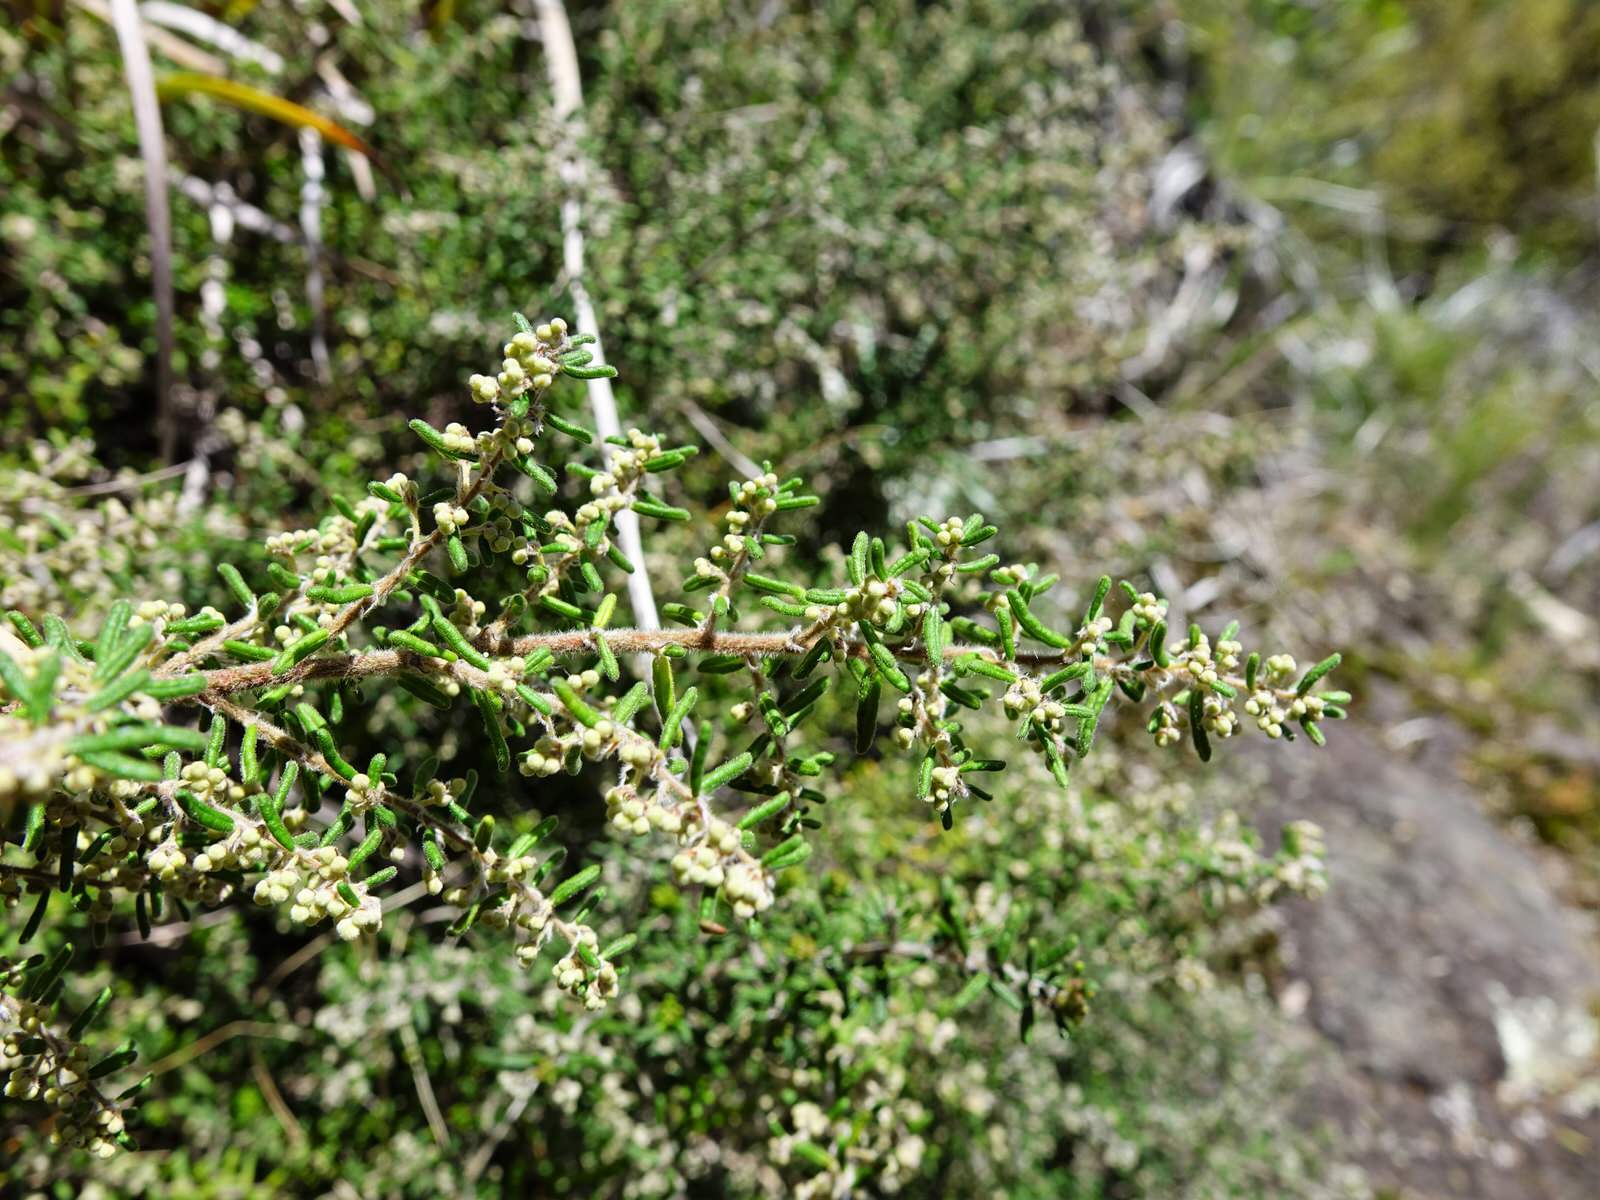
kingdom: Plantae
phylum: Tracheophyta
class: Magnoliopsida
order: Rosales
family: Rhamnaceae
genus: Pomaderris
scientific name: Pomaderris amoena
